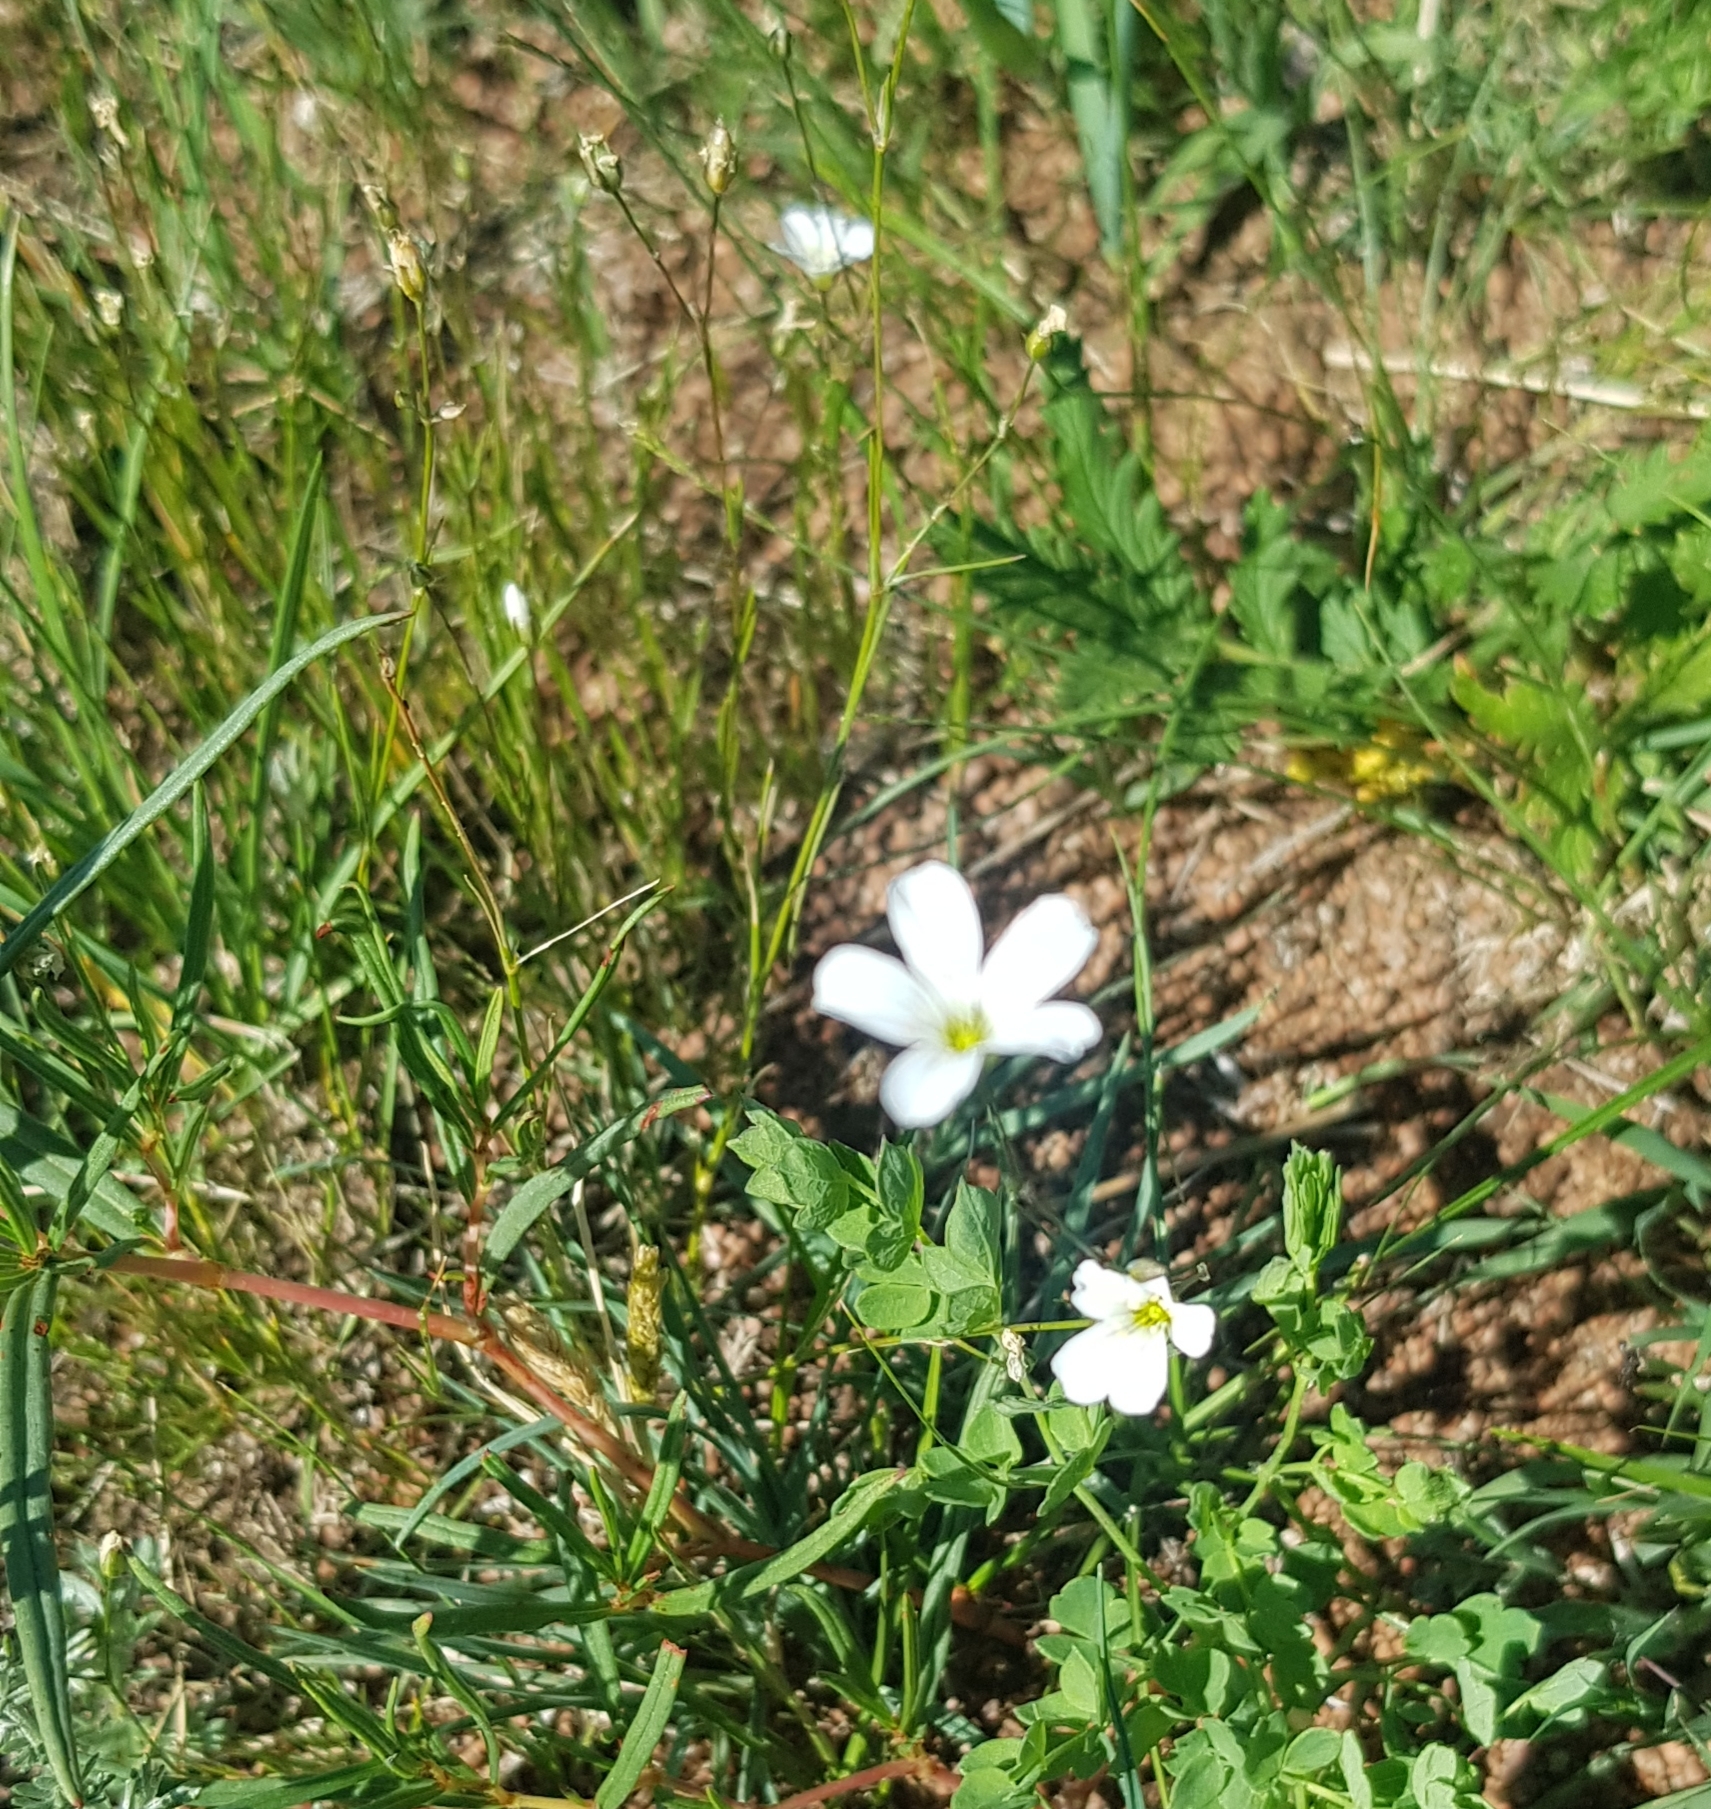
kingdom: Plantae
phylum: Tracheophyta
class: Magnoliopsida
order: Caryophyllales
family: Caryophyllaceae
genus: Eremogone
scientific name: Eremogone capillaris
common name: Slender mountain sandwort
